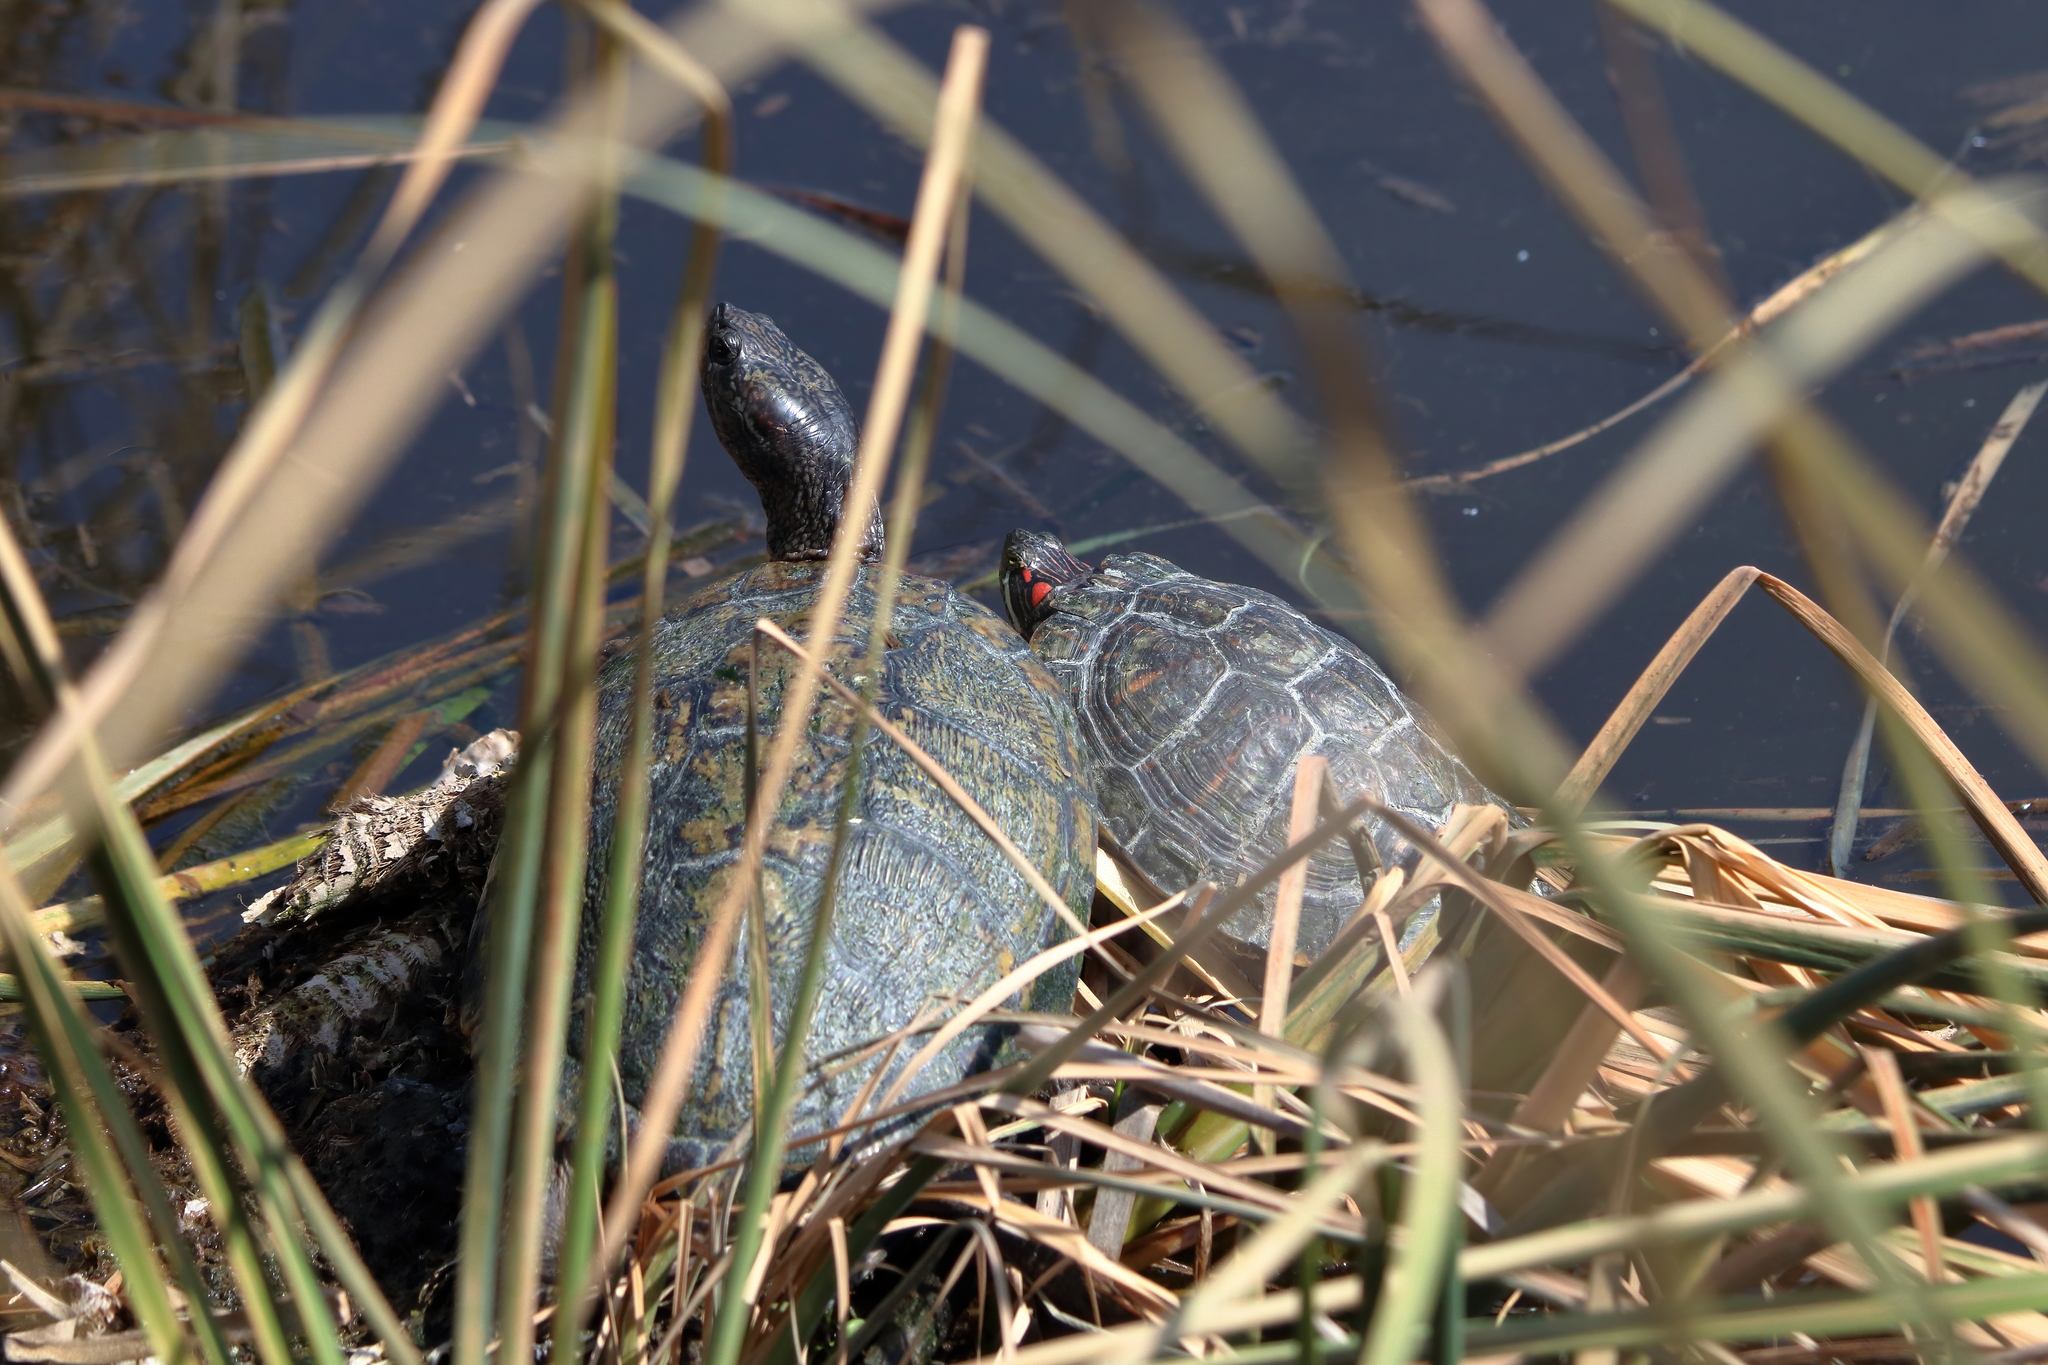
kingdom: Animalia
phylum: Chordata
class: Testudines
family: Emydidae
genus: Trachemys
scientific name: Trachemys scripta
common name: Slider
